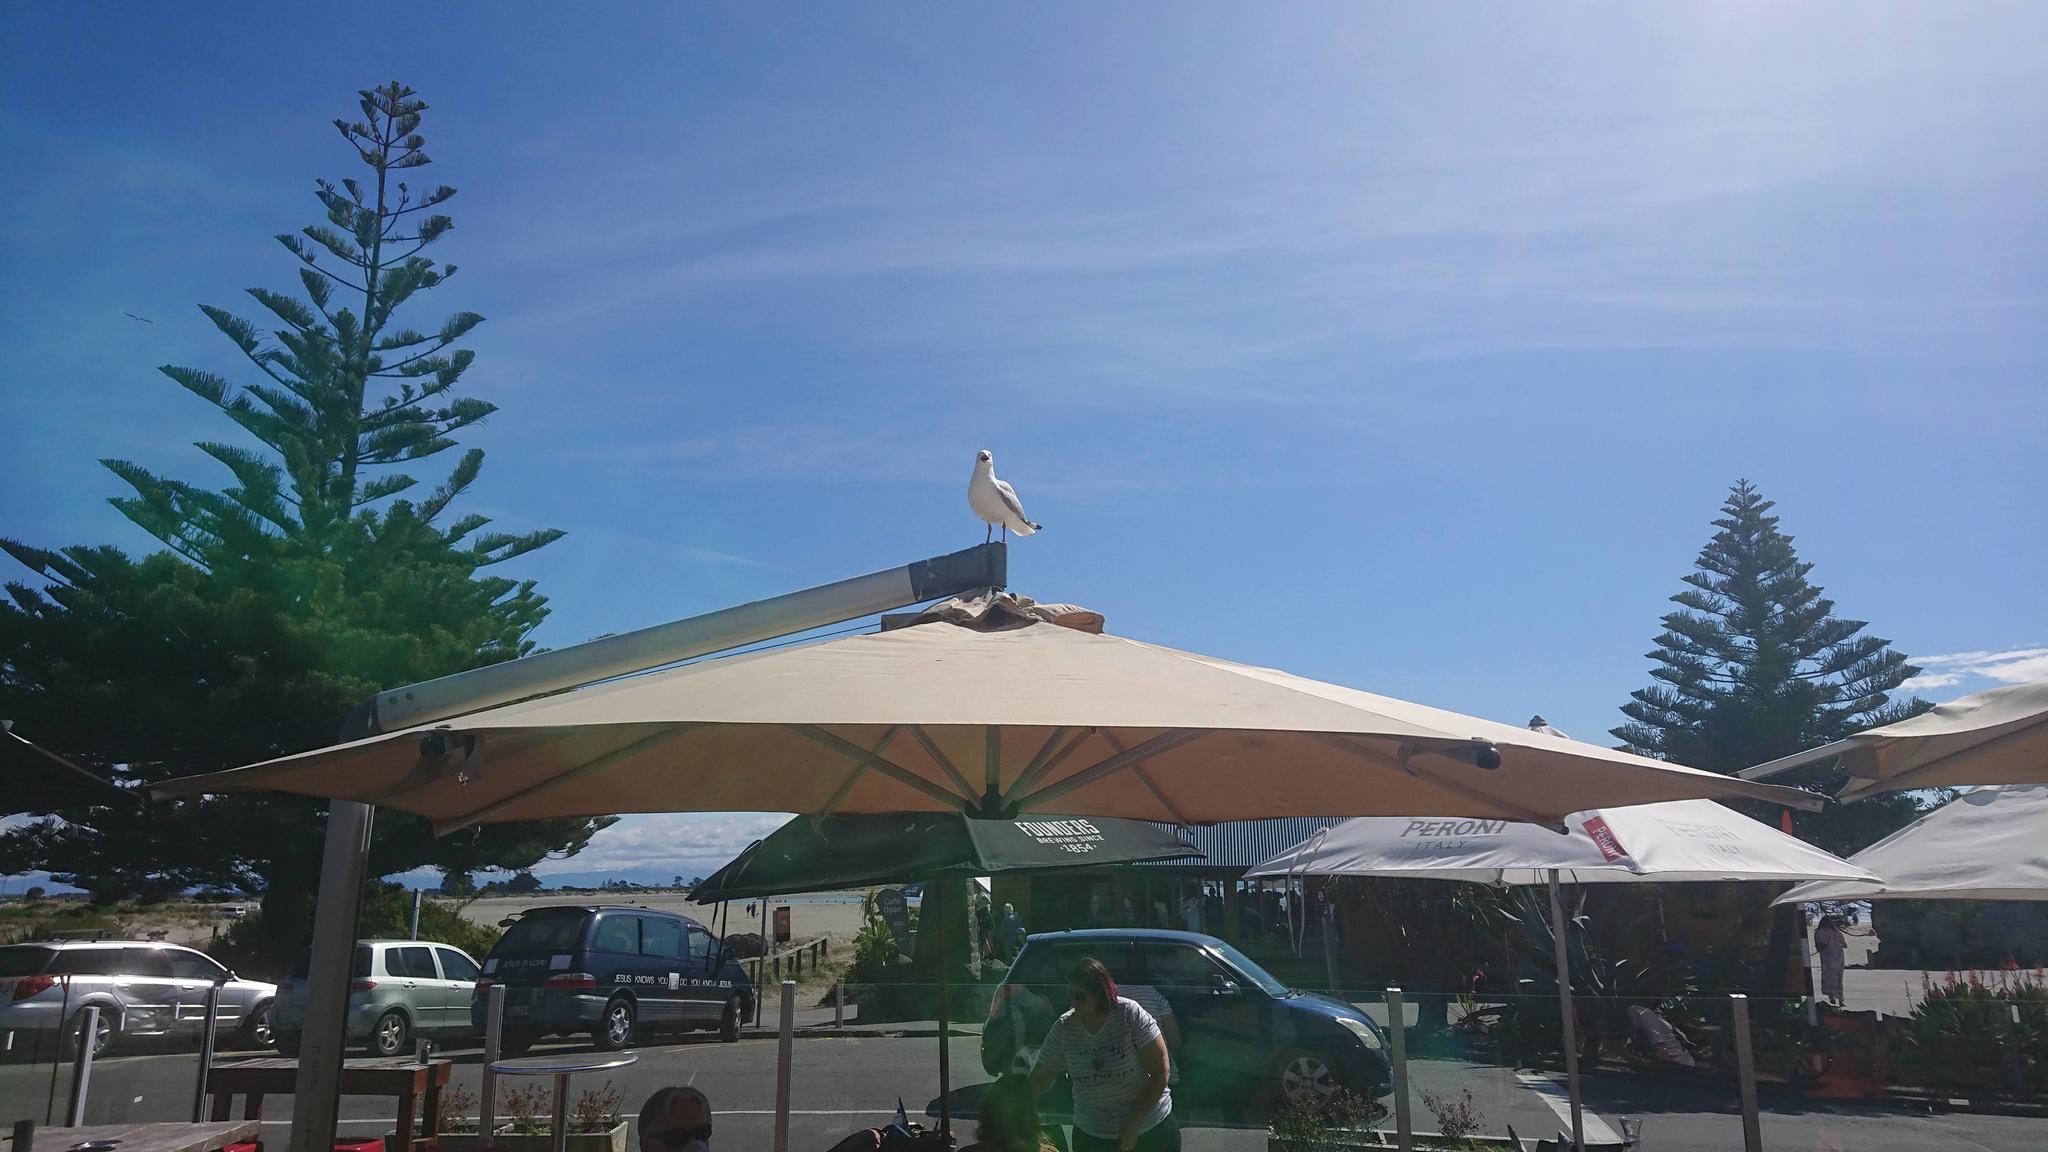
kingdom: Animalia
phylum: Chordata
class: Aves
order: Charadriiformes
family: Laridae
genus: Chroicocephalus
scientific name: Chroicocephalus novaehollandiae
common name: Silver gull
